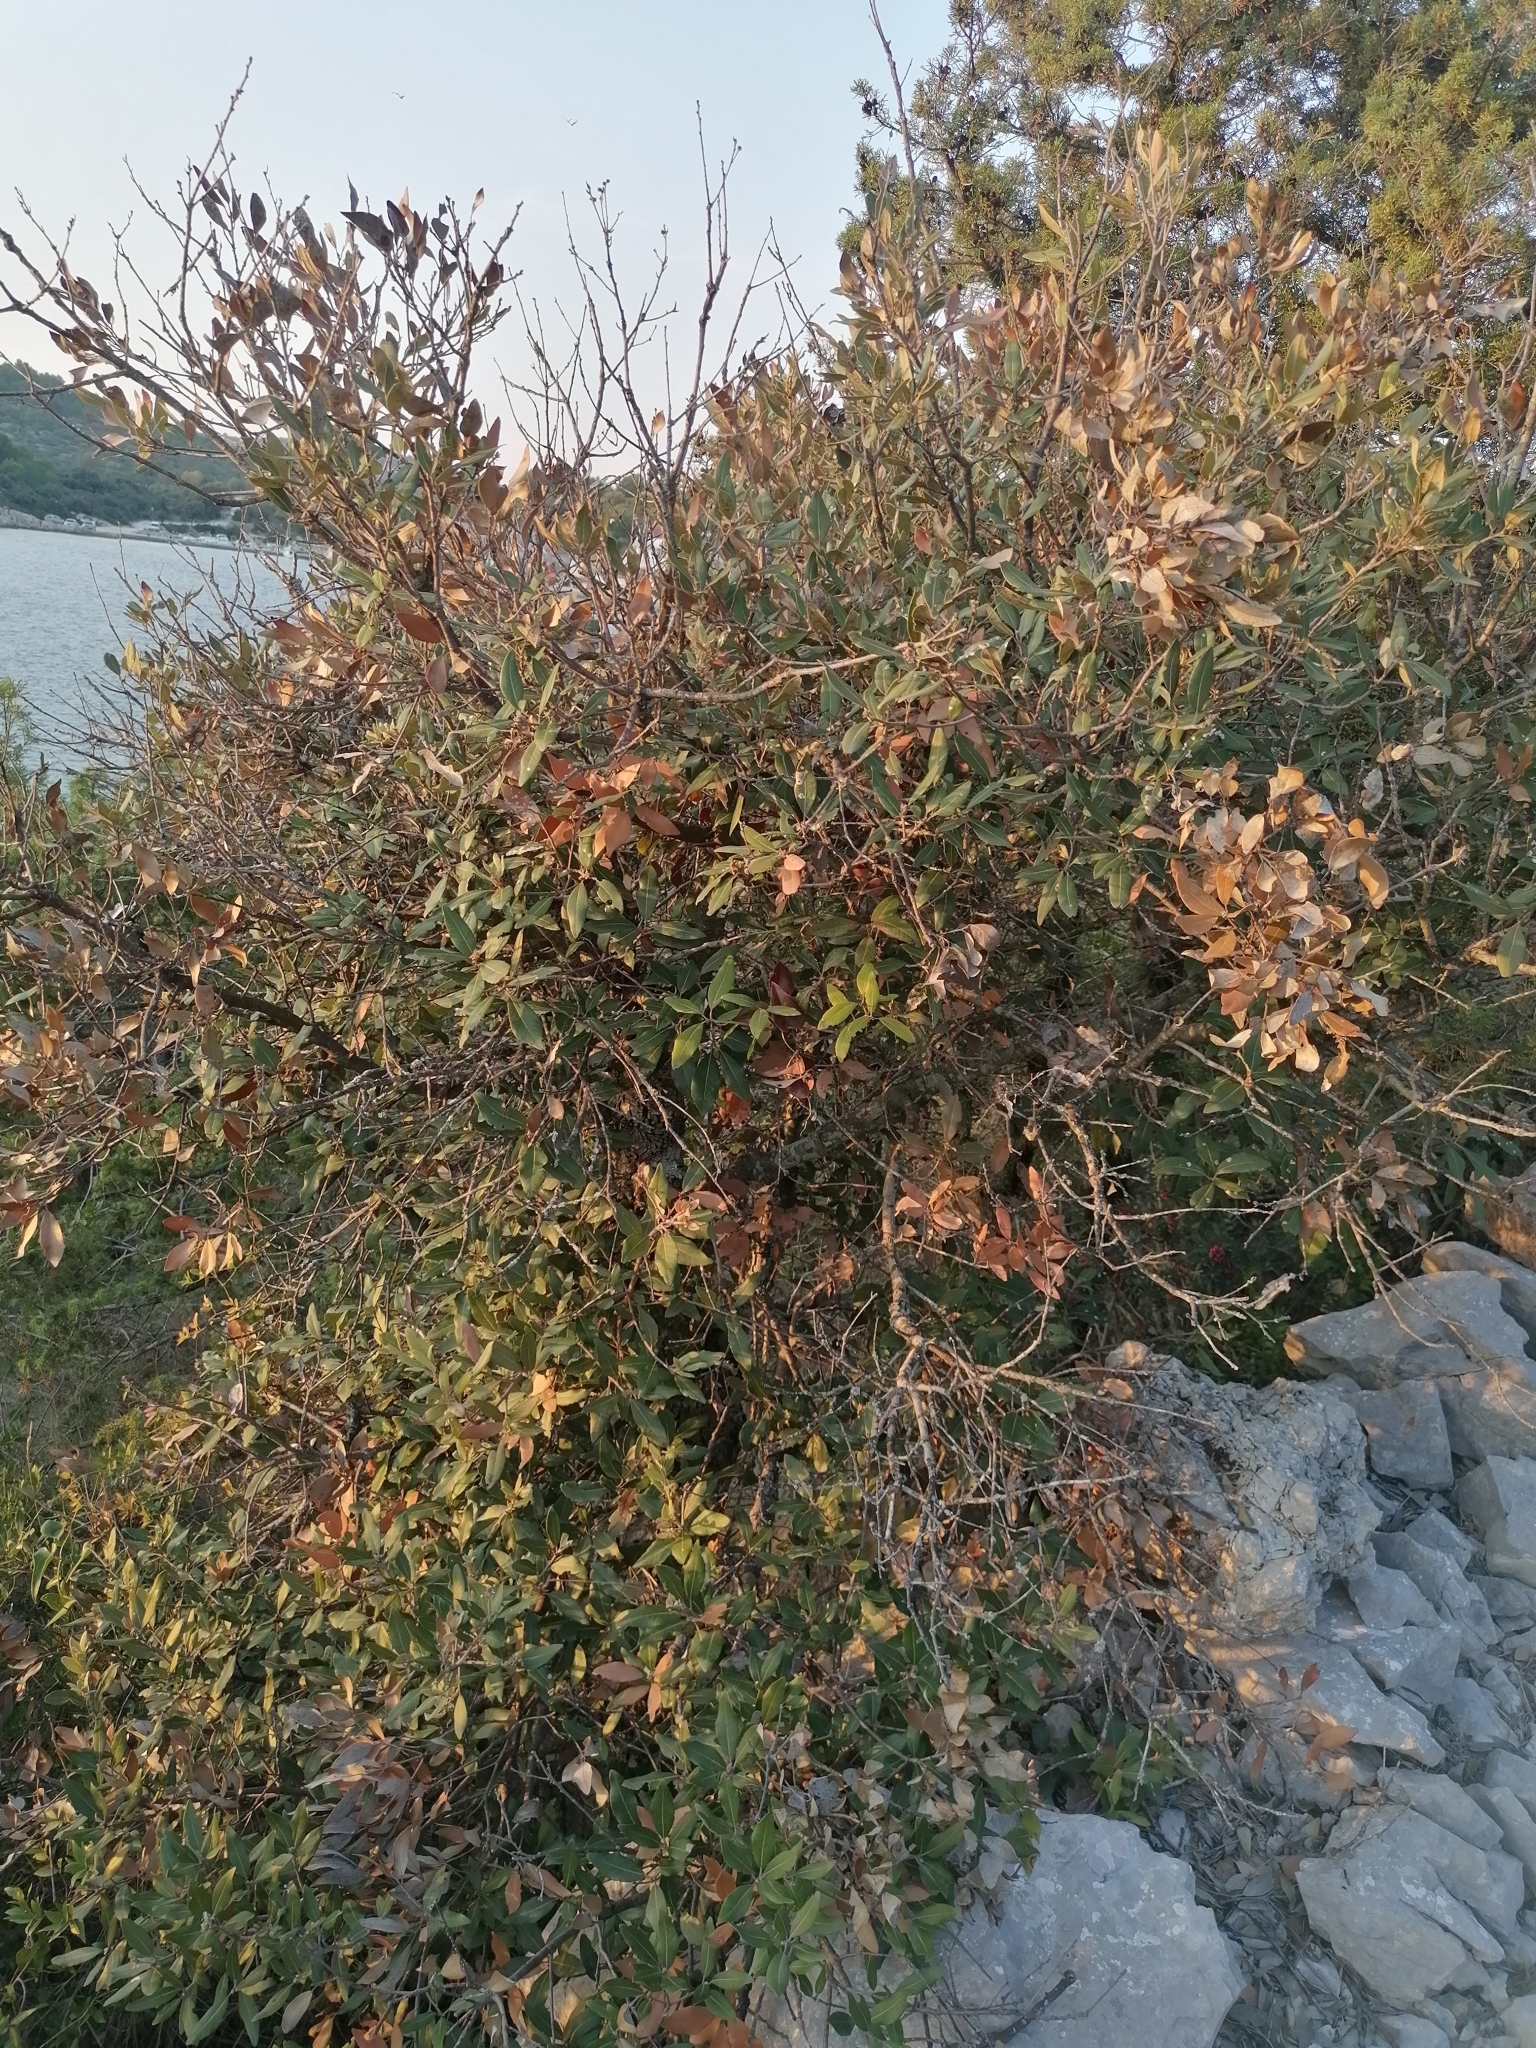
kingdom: Plantae
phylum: Tracheophyta
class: Magnoliopsida
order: Fagales
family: Fagaceae
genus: Quercus
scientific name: Quercus ilex
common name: Evergreen oak
